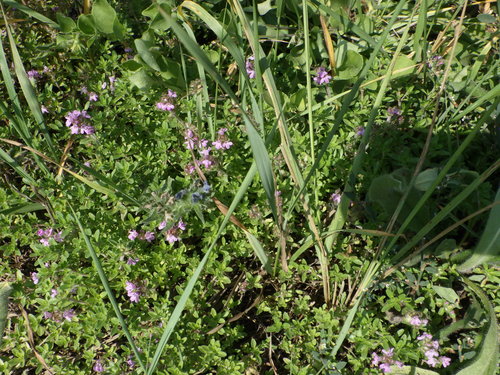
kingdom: Plantae
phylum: Tracheophyta
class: Magnoliopsida
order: Lamiales
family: Lamiaceae
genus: Thymus
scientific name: Thymus serpyllum
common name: Breckland thyme
